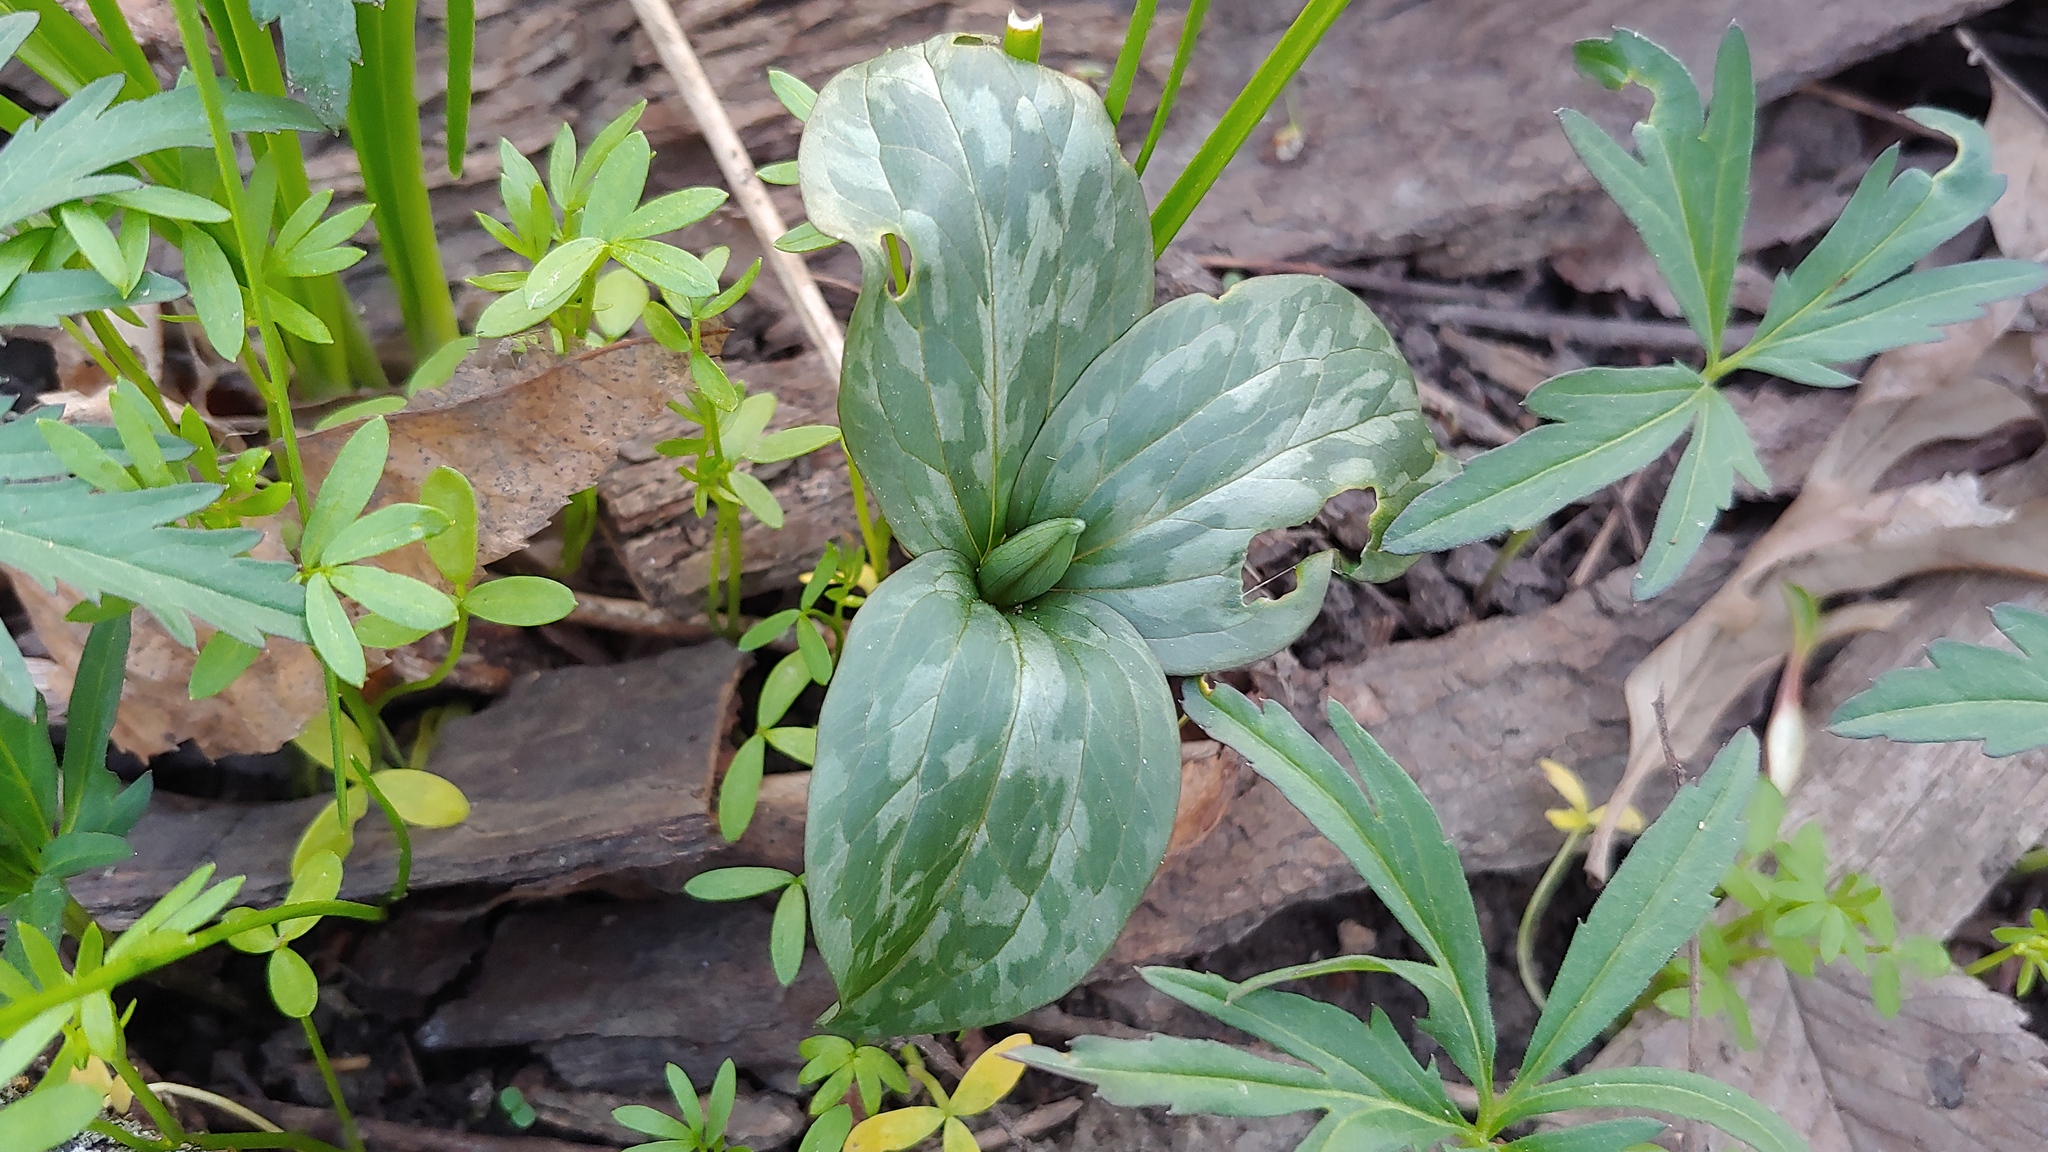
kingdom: Plantae
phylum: Tracheophyta
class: Liliopsida
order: Liliales
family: Melanthiaceae
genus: Trillium
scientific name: Trillium recurvatum
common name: Bloody butcher
